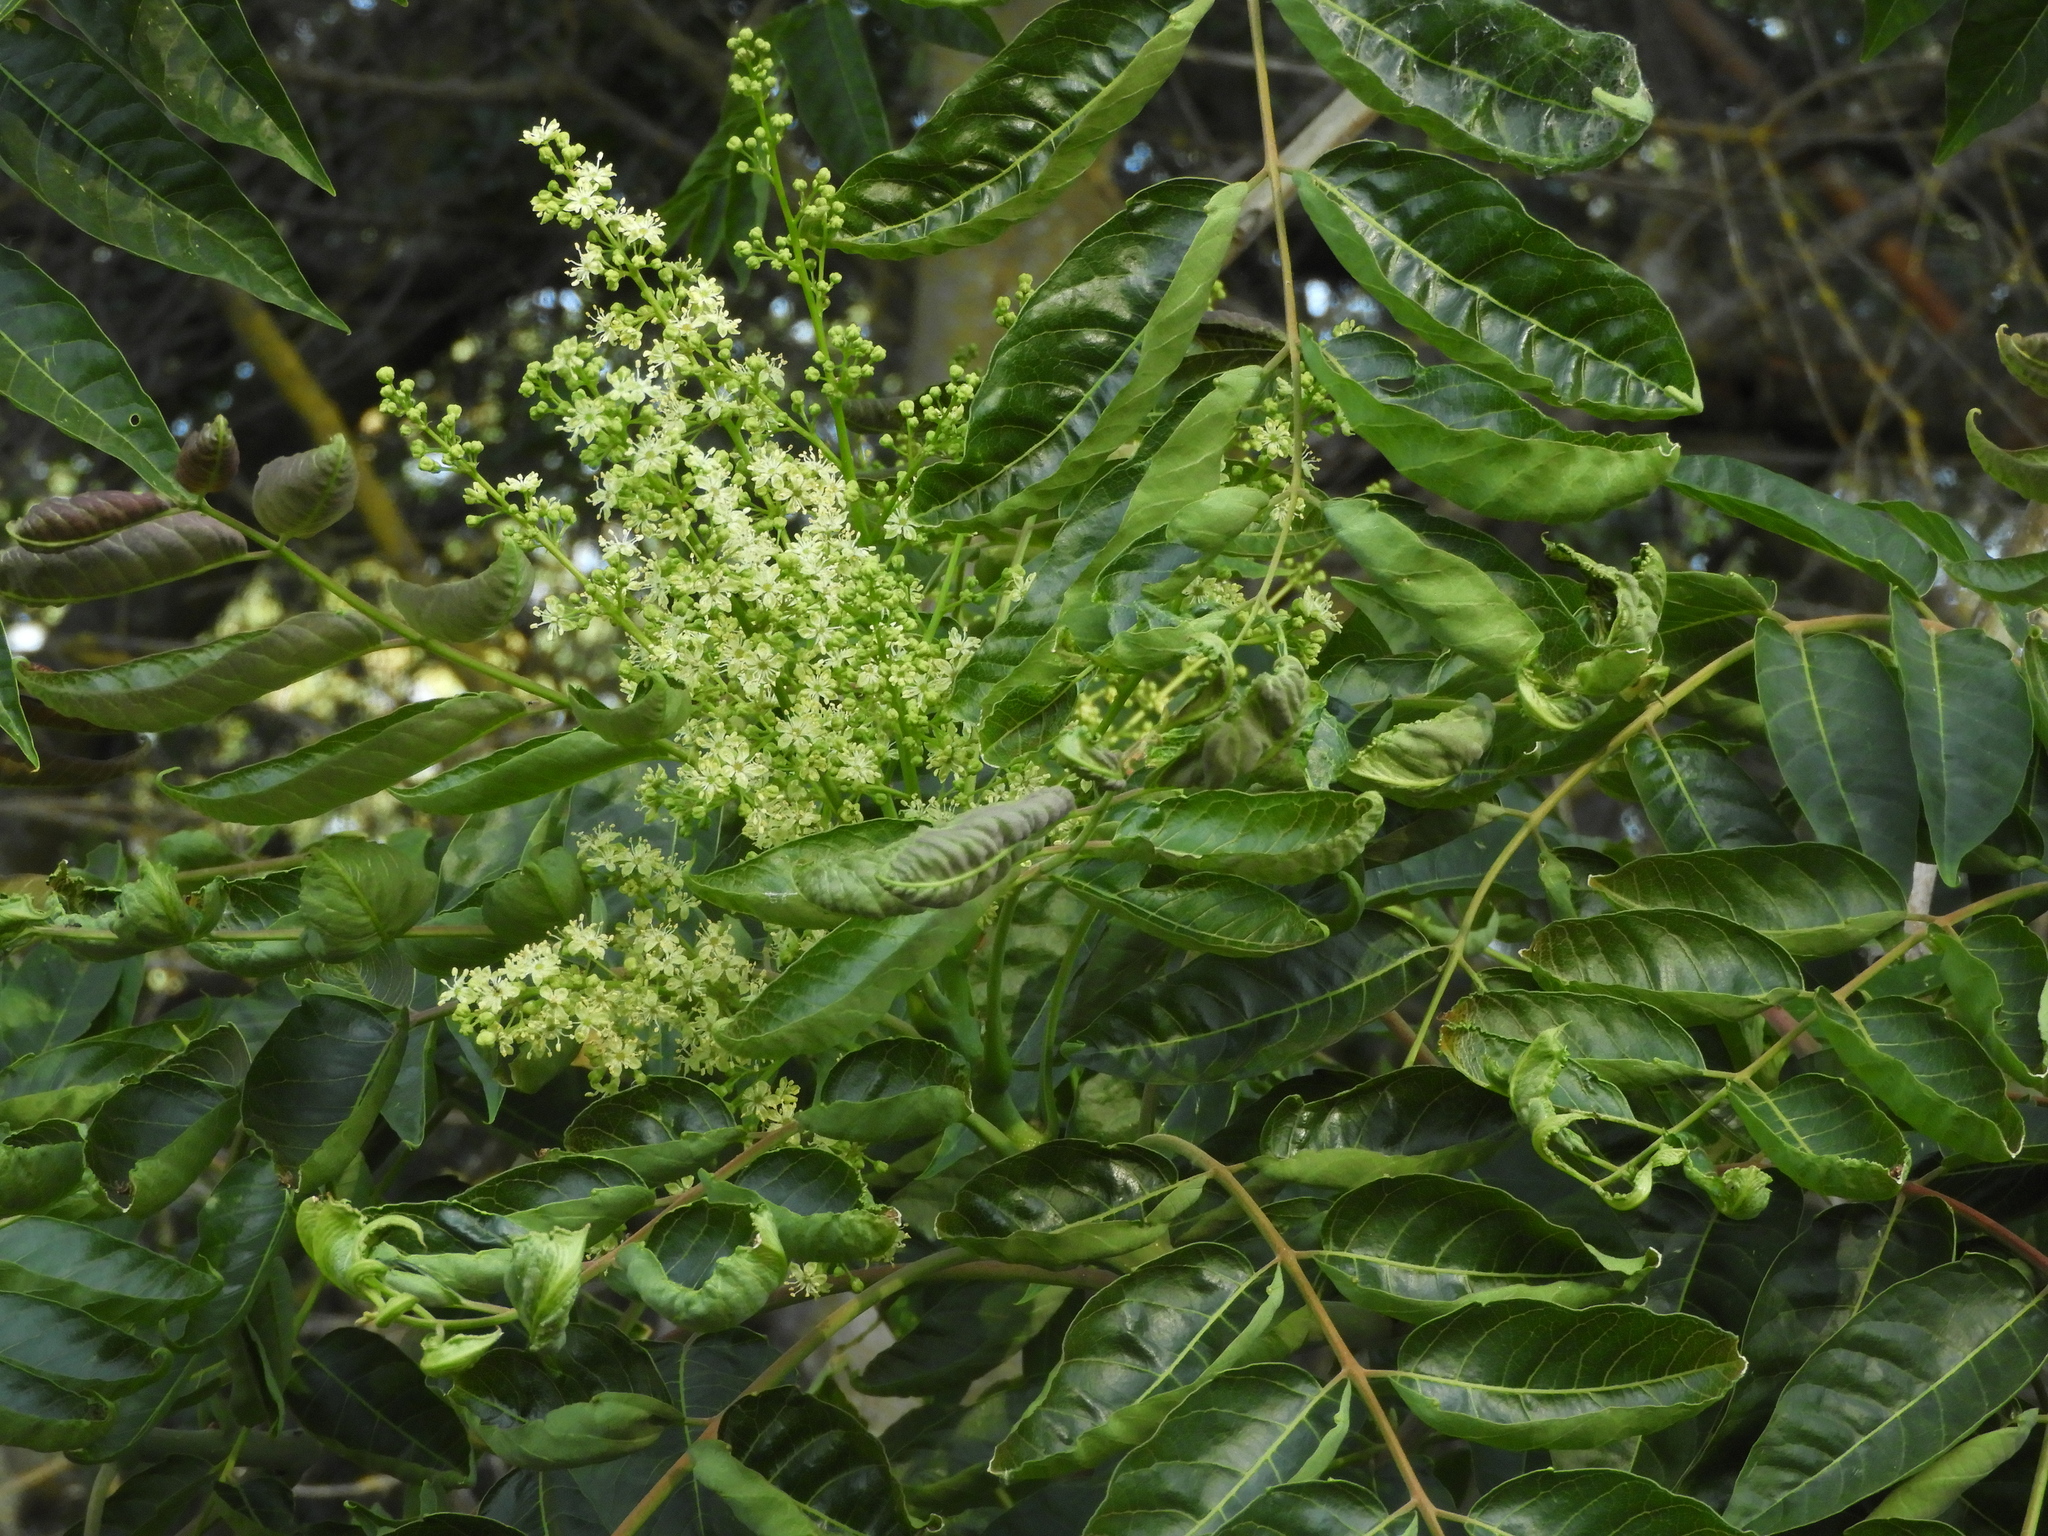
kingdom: Plantae
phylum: Tracheophyta
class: Magnoliopsida
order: Sapindales
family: Simaroubaceae
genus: Ailanthus
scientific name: Ailanthus altissima
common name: Tree-of-heaven
